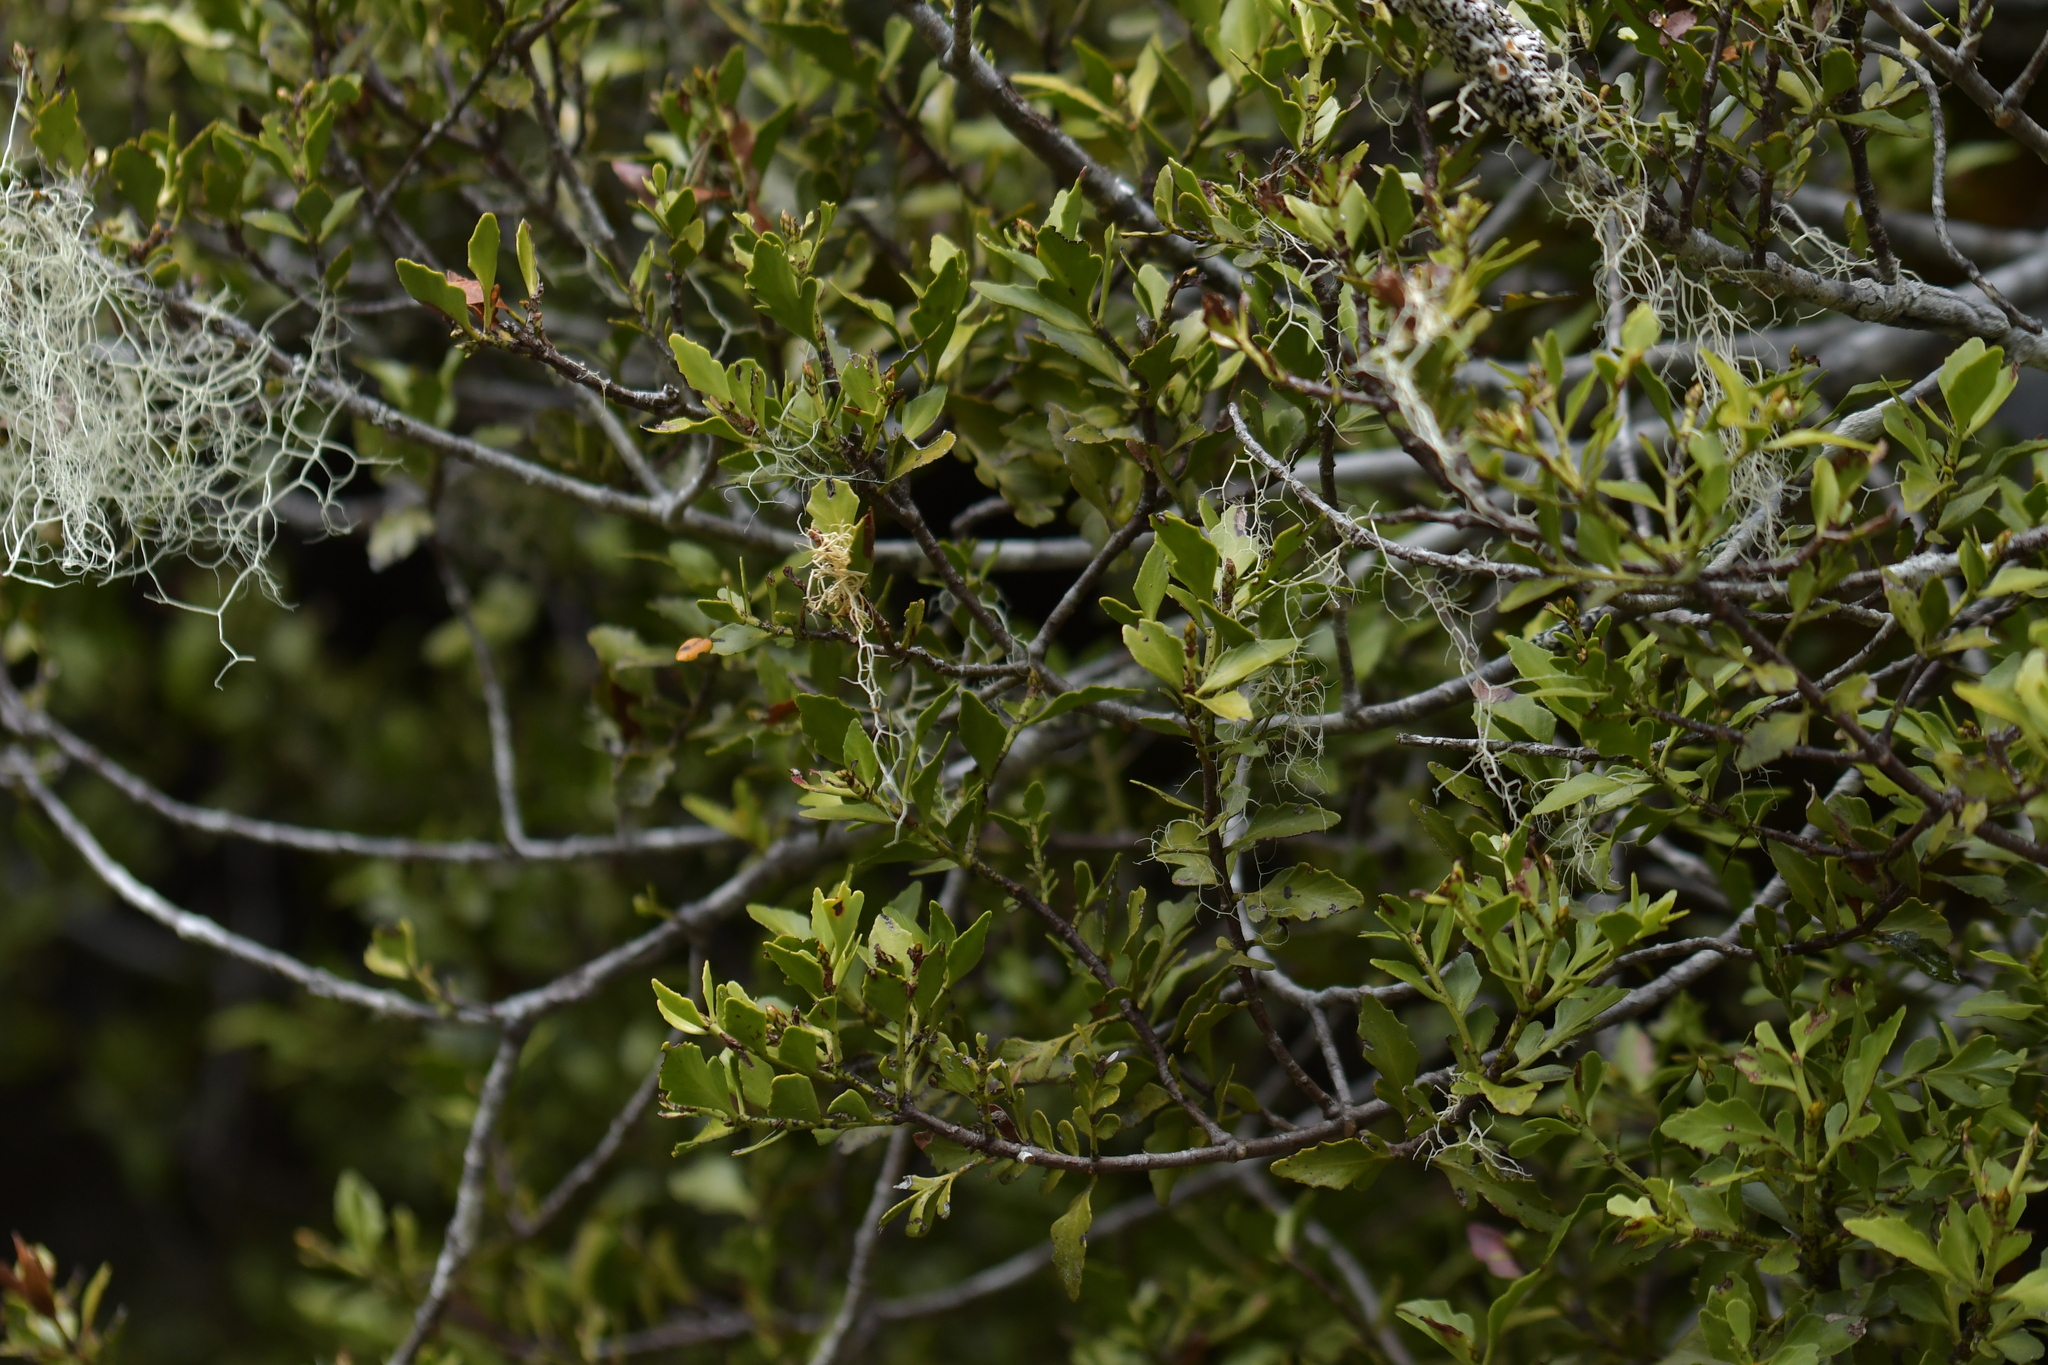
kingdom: Plantae
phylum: Tracheophyta
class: Pinopsida
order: Pinales
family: Phyllocladaceae
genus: Phyllocladus
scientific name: Phyllocladus trichomanoides
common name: Celery pine
